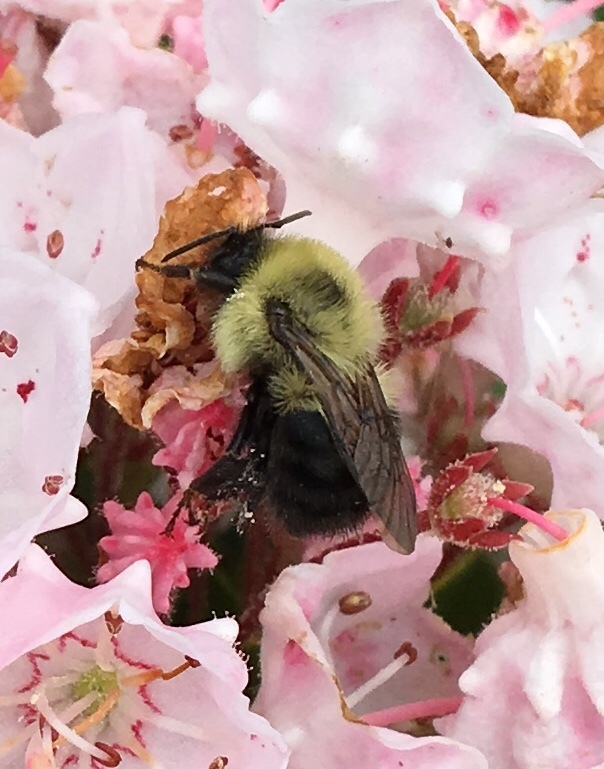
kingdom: Animalia
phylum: Arthropoda
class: Insecta
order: Hymenoptera
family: Apidae
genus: Bombus
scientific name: Bombus bimaculatus
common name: Two-spotted bumble bee
